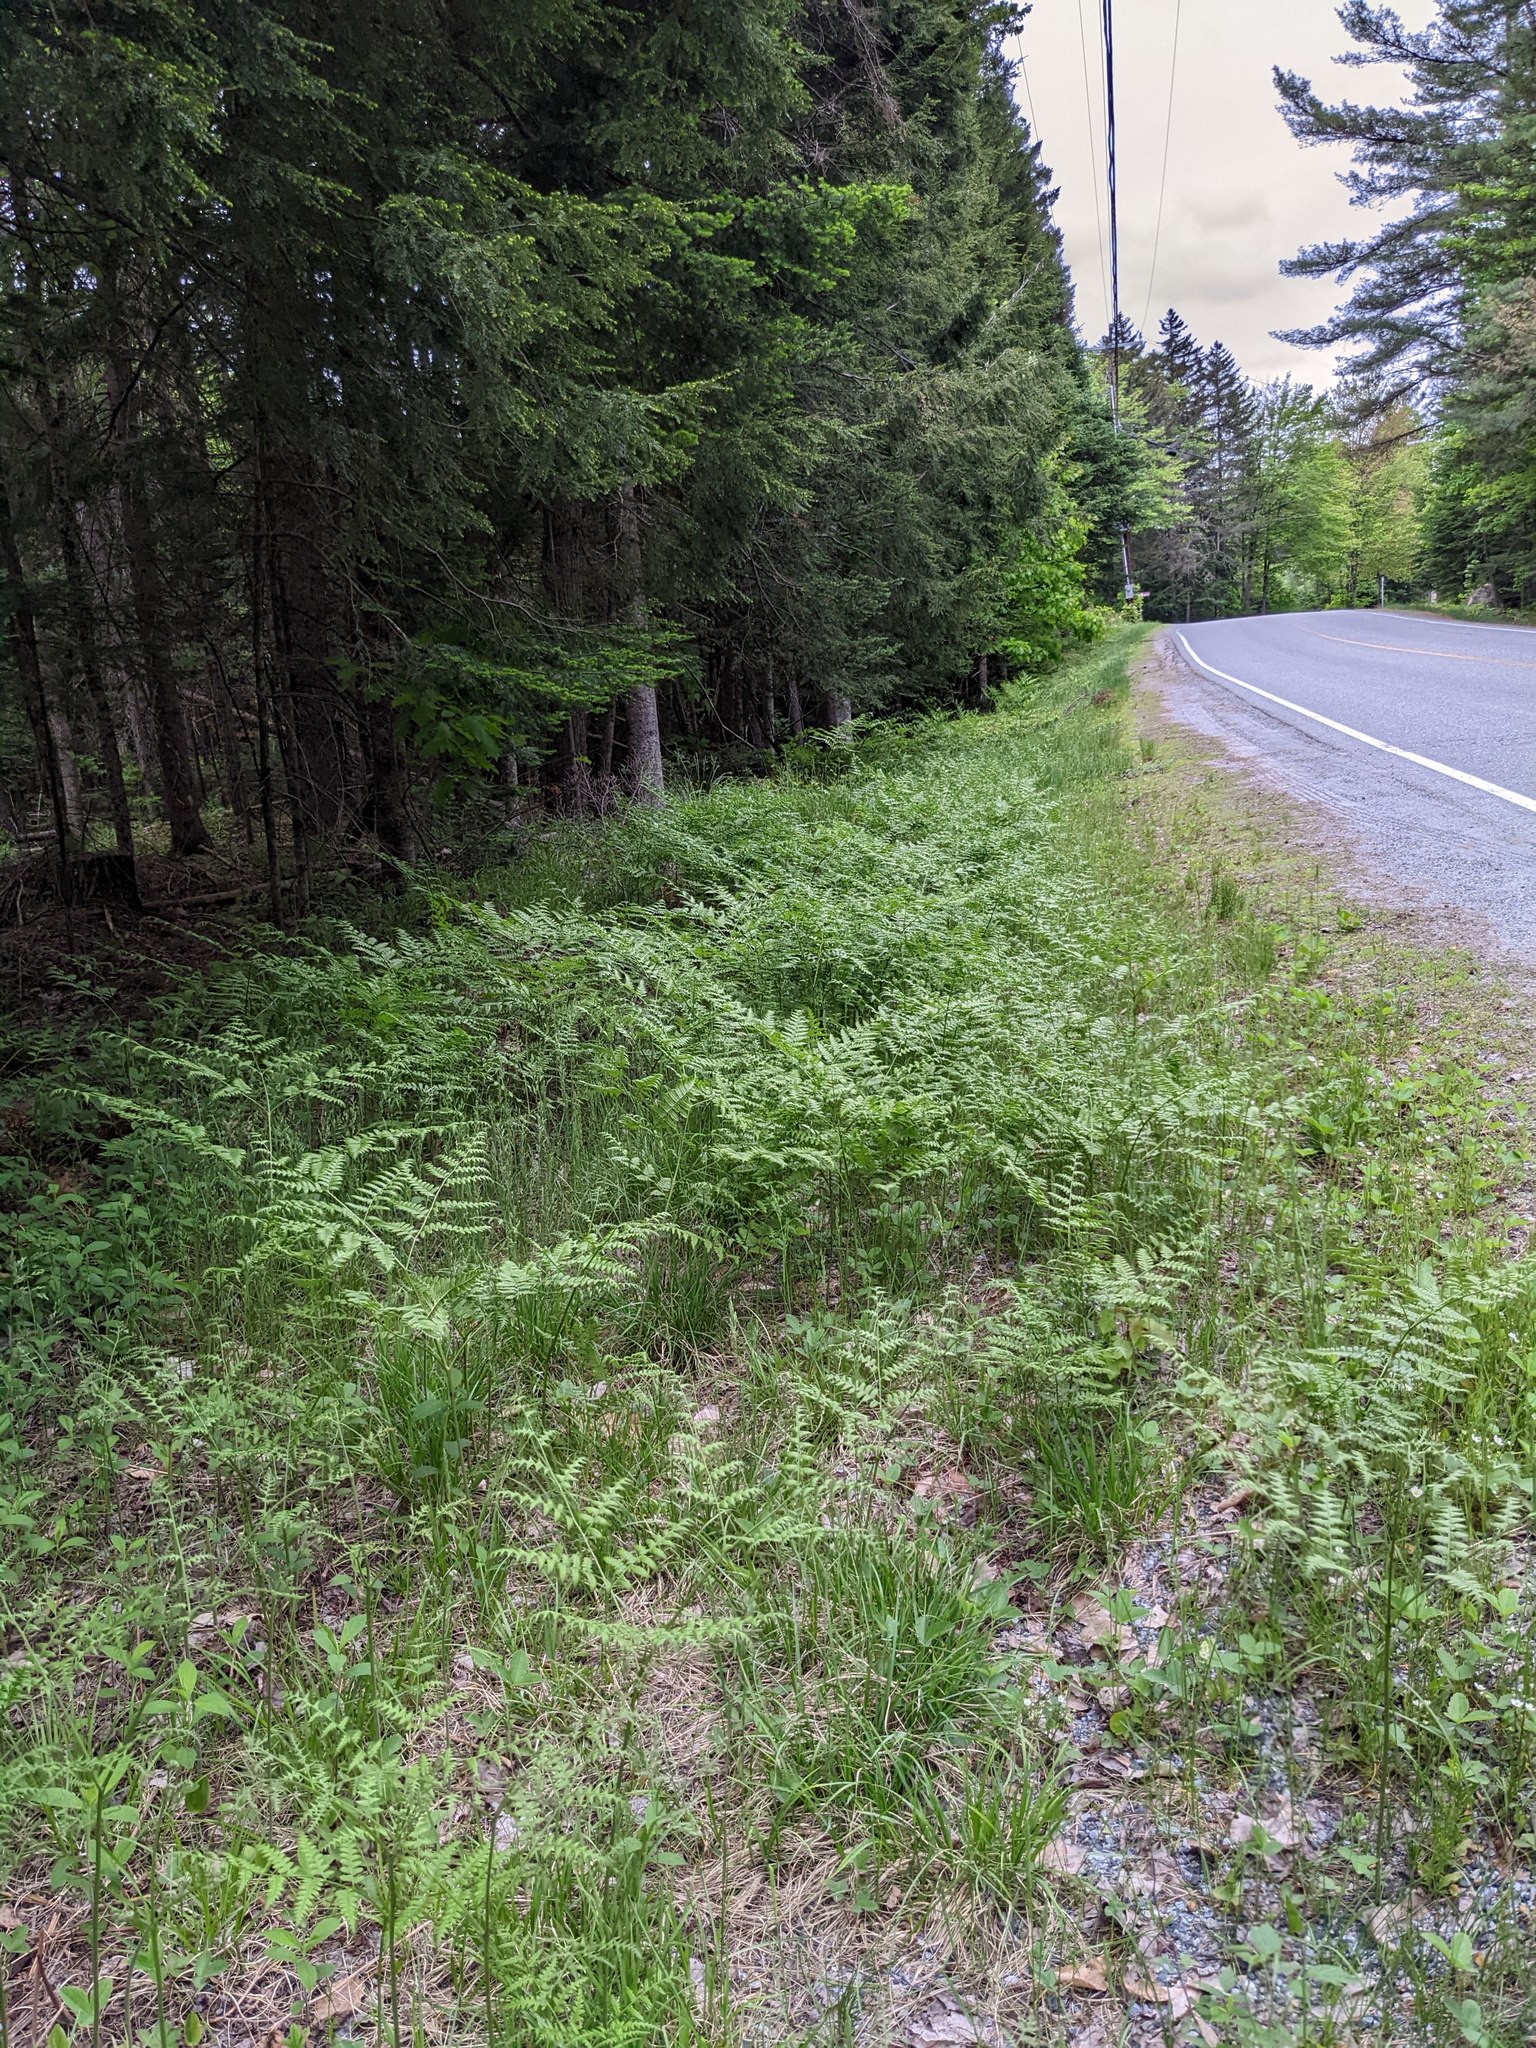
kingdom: Plantae
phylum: Tracheophyta
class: Polypodiopsida
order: Polypodiales
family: Dennstaedtiaceae
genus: Pteridium
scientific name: Pteridium aquilinum
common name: Bracken
